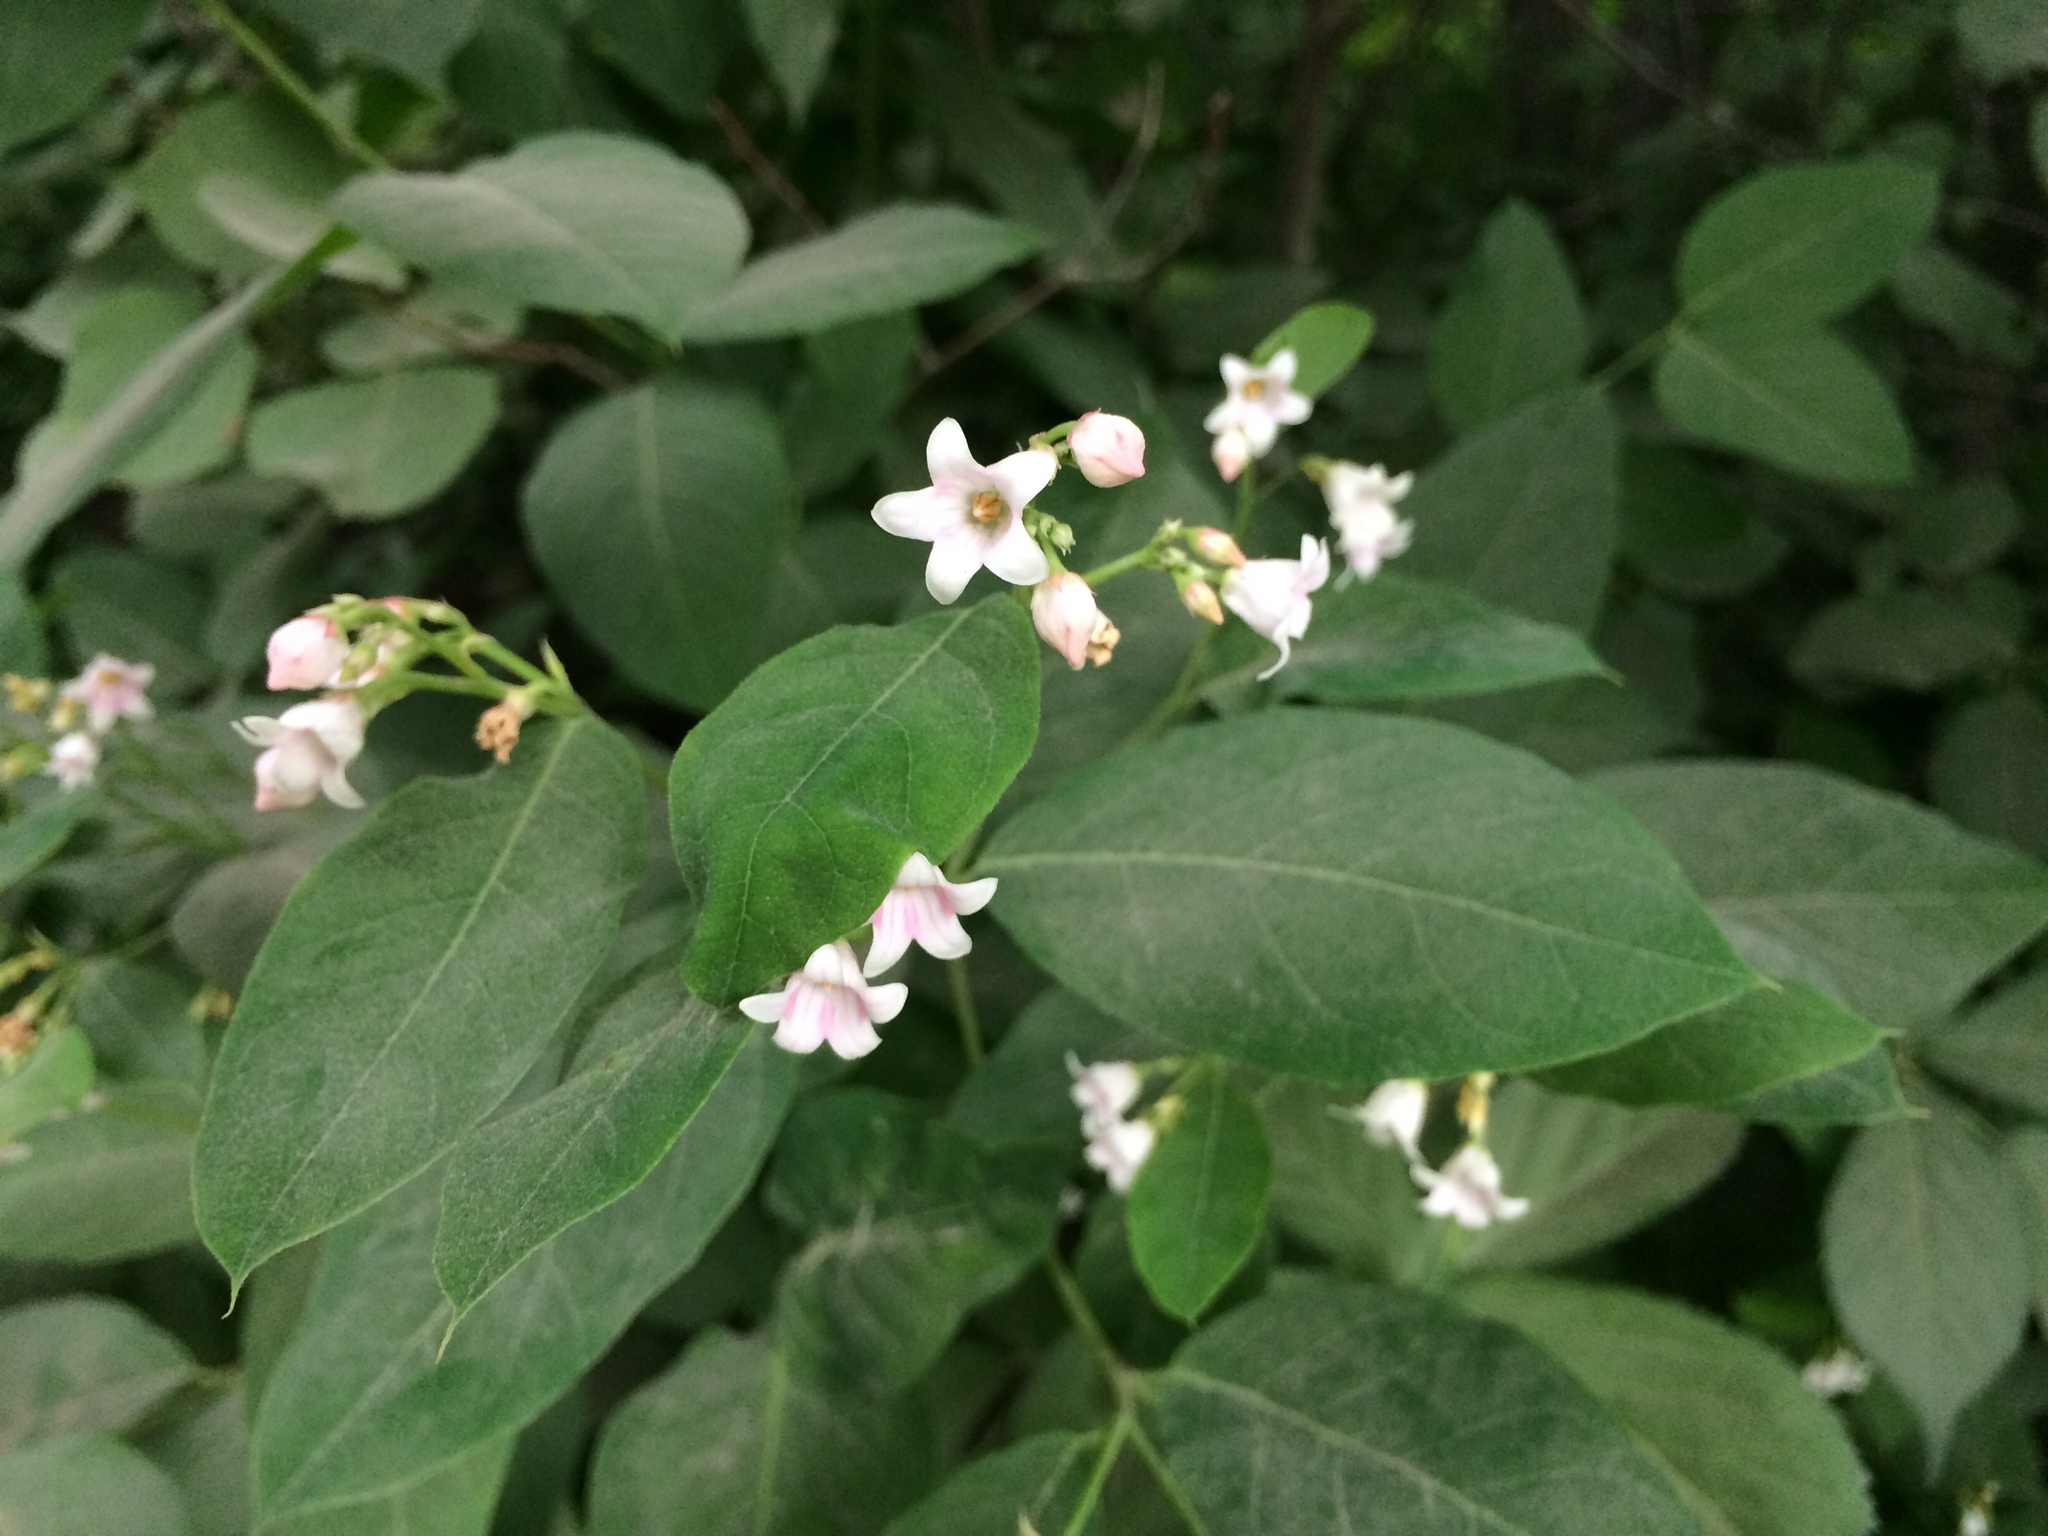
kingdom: Plantae
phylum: Tracheophyta
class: Magnoliopsida
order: Gentianales
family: Apocynaceae
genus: Apocynum
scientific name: Apocynum androsaemifolium
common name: Spreading dogbane
